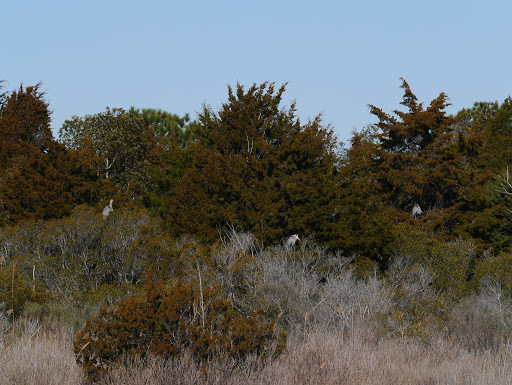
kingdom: Animalia
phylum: Chordata
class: Aves
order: Pelecaniformes
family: Ardeidae
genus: Ardea
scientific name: Ardea herodias
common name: Great blue heron
